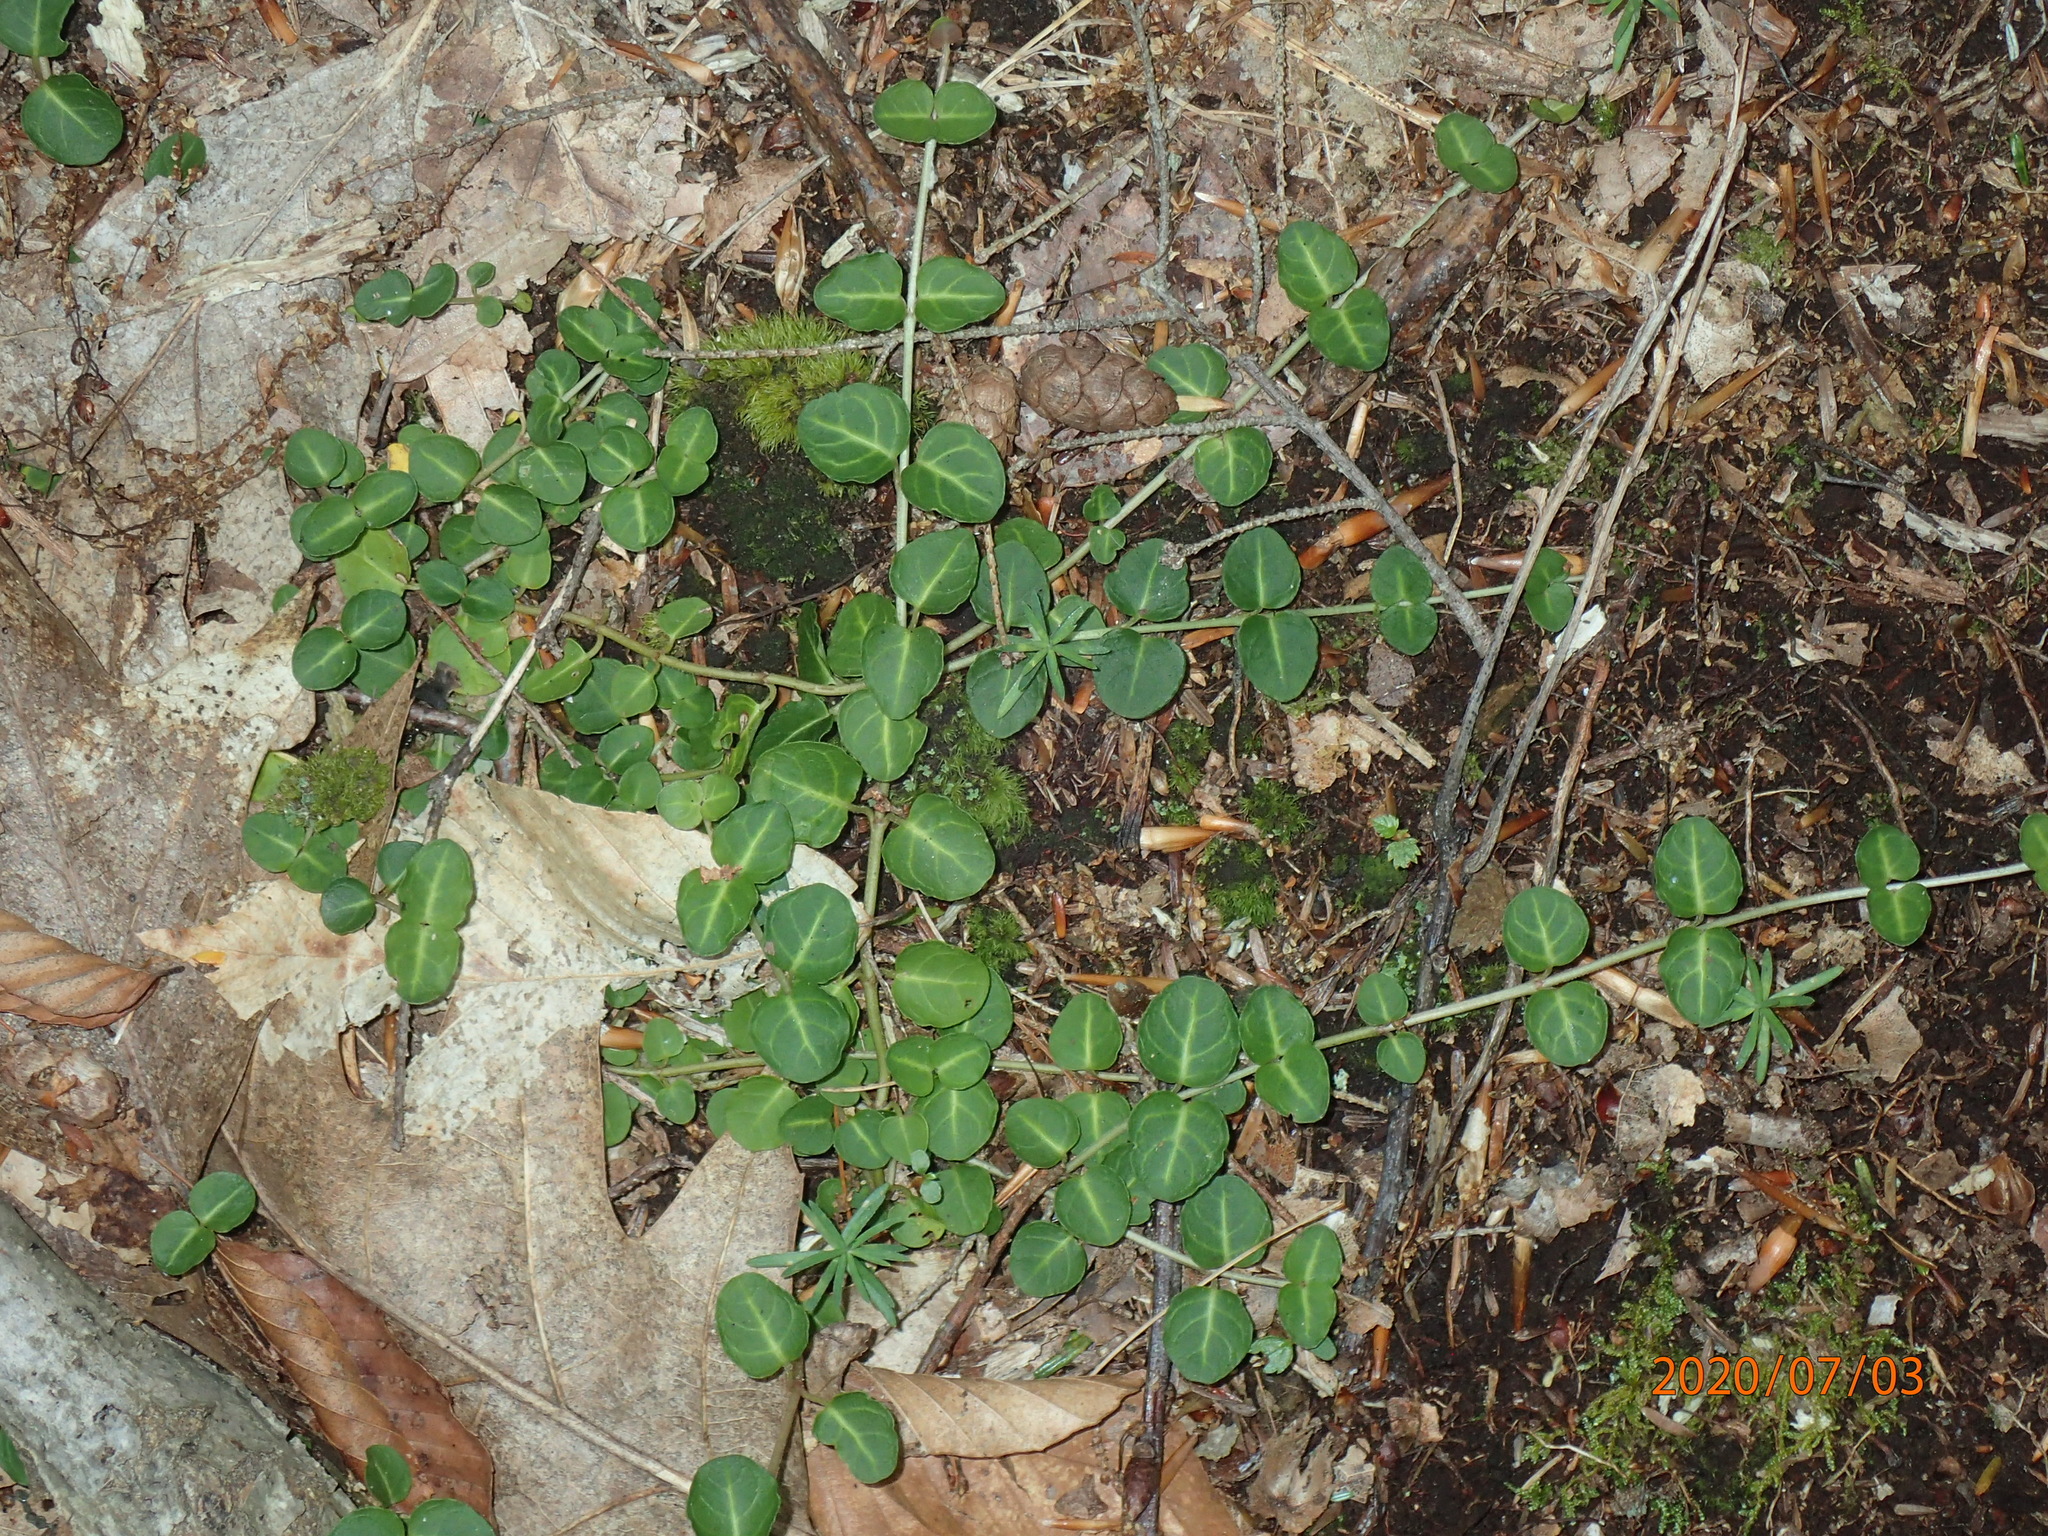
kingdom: Plantae
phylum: Tracheophyta
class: Magnoliopsida
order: Gentianales
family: Rubiaceae
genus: Mitchella
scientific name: Mitchella repens
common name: Partridge-berry
